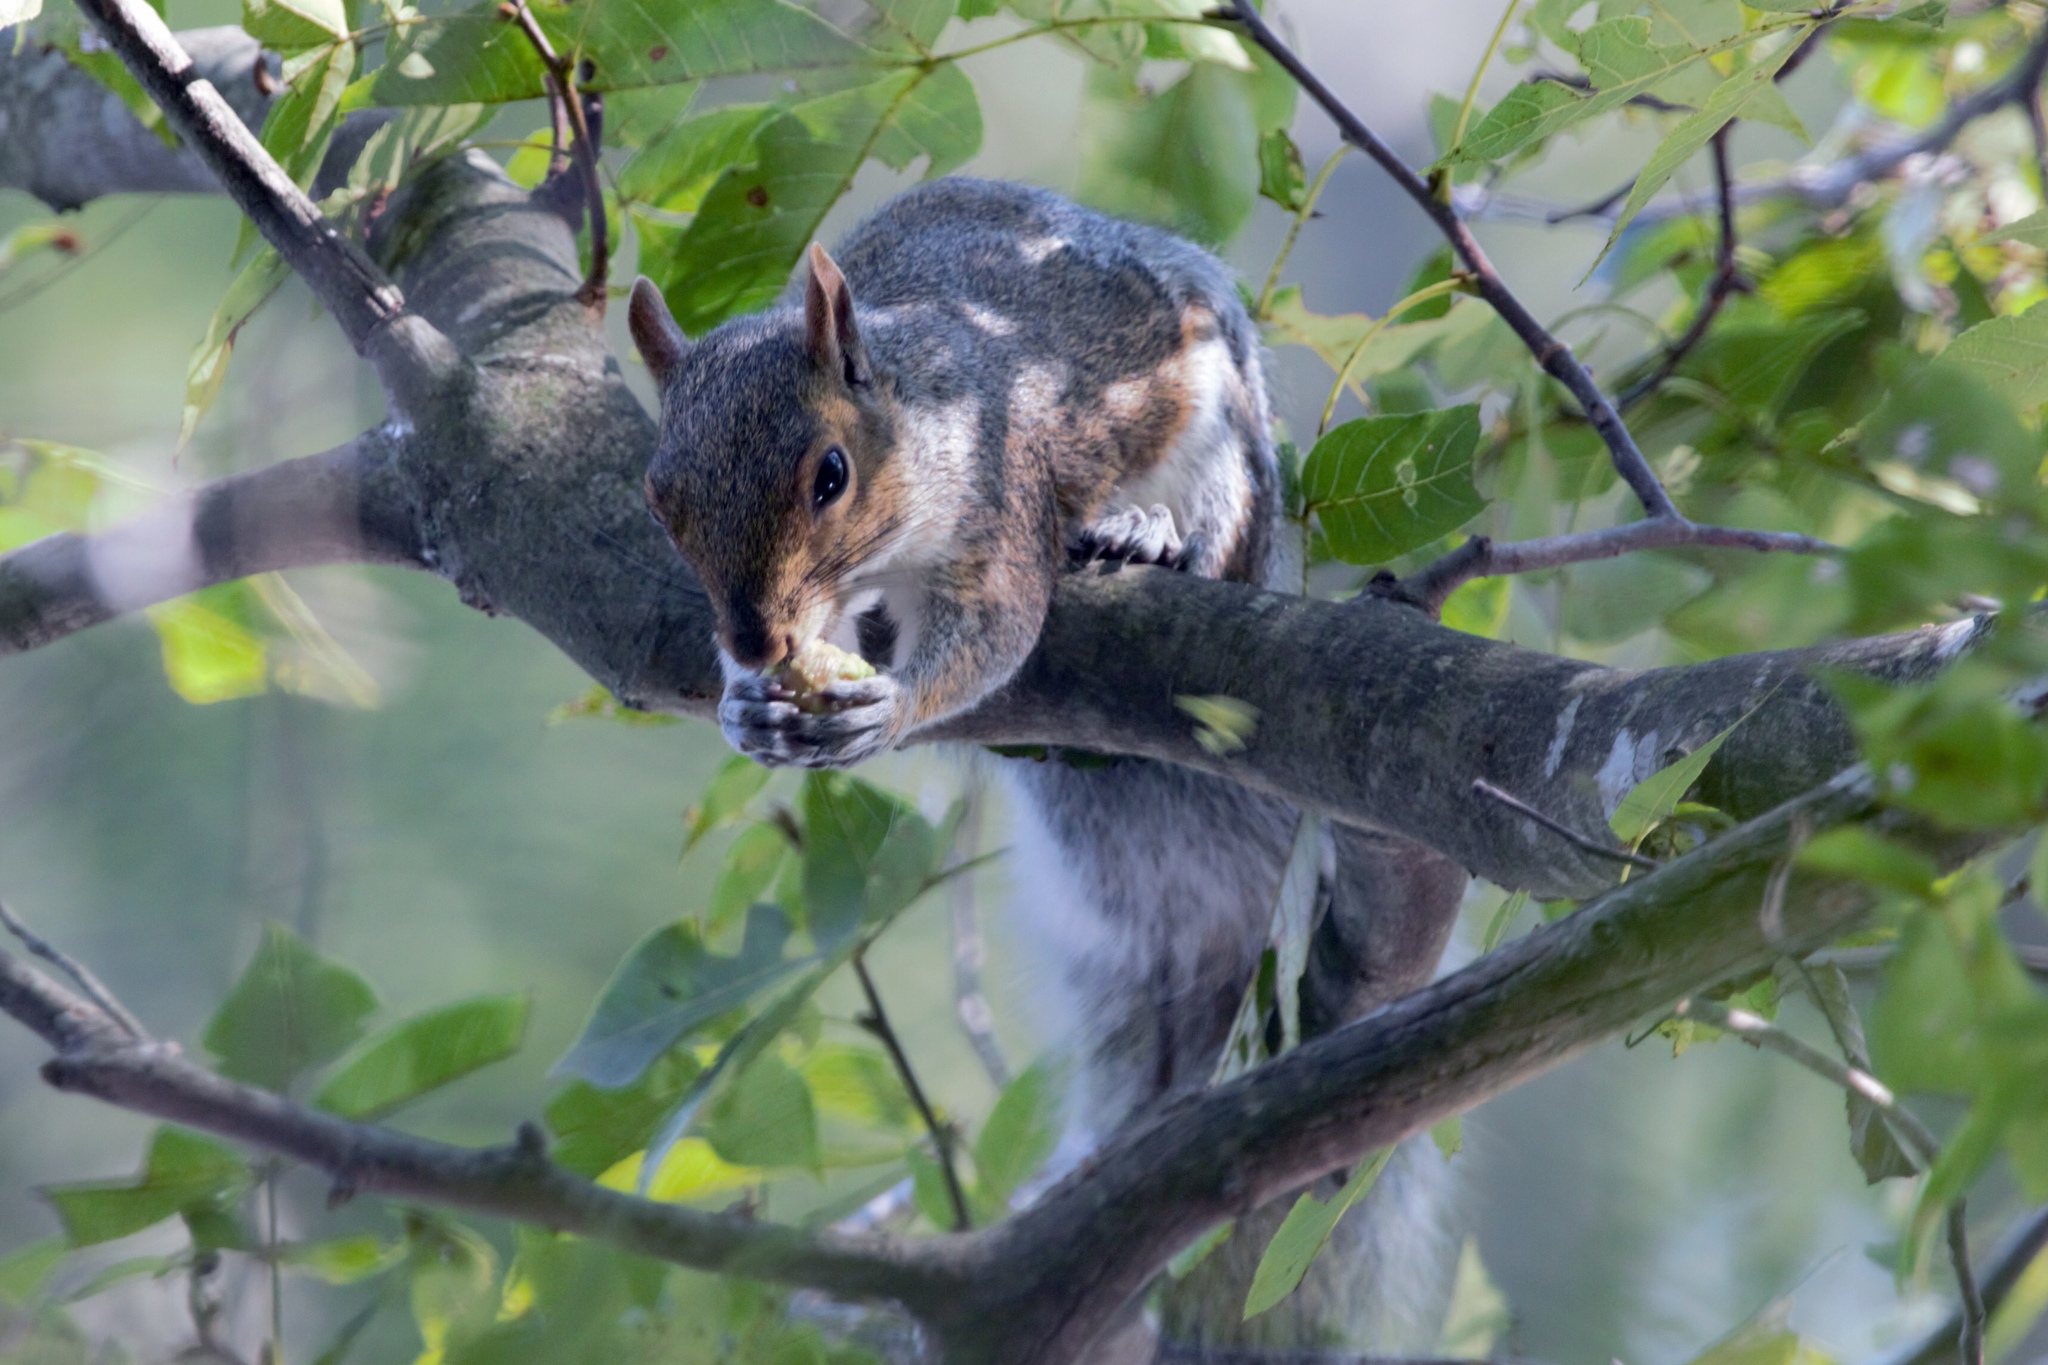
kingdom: Animalia
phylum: Chordata
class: Mammalia
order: Rodentia
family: Sciuridae
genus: Sciurus
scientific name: Sciurus carolinensis
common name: Eastern gray squirrel
